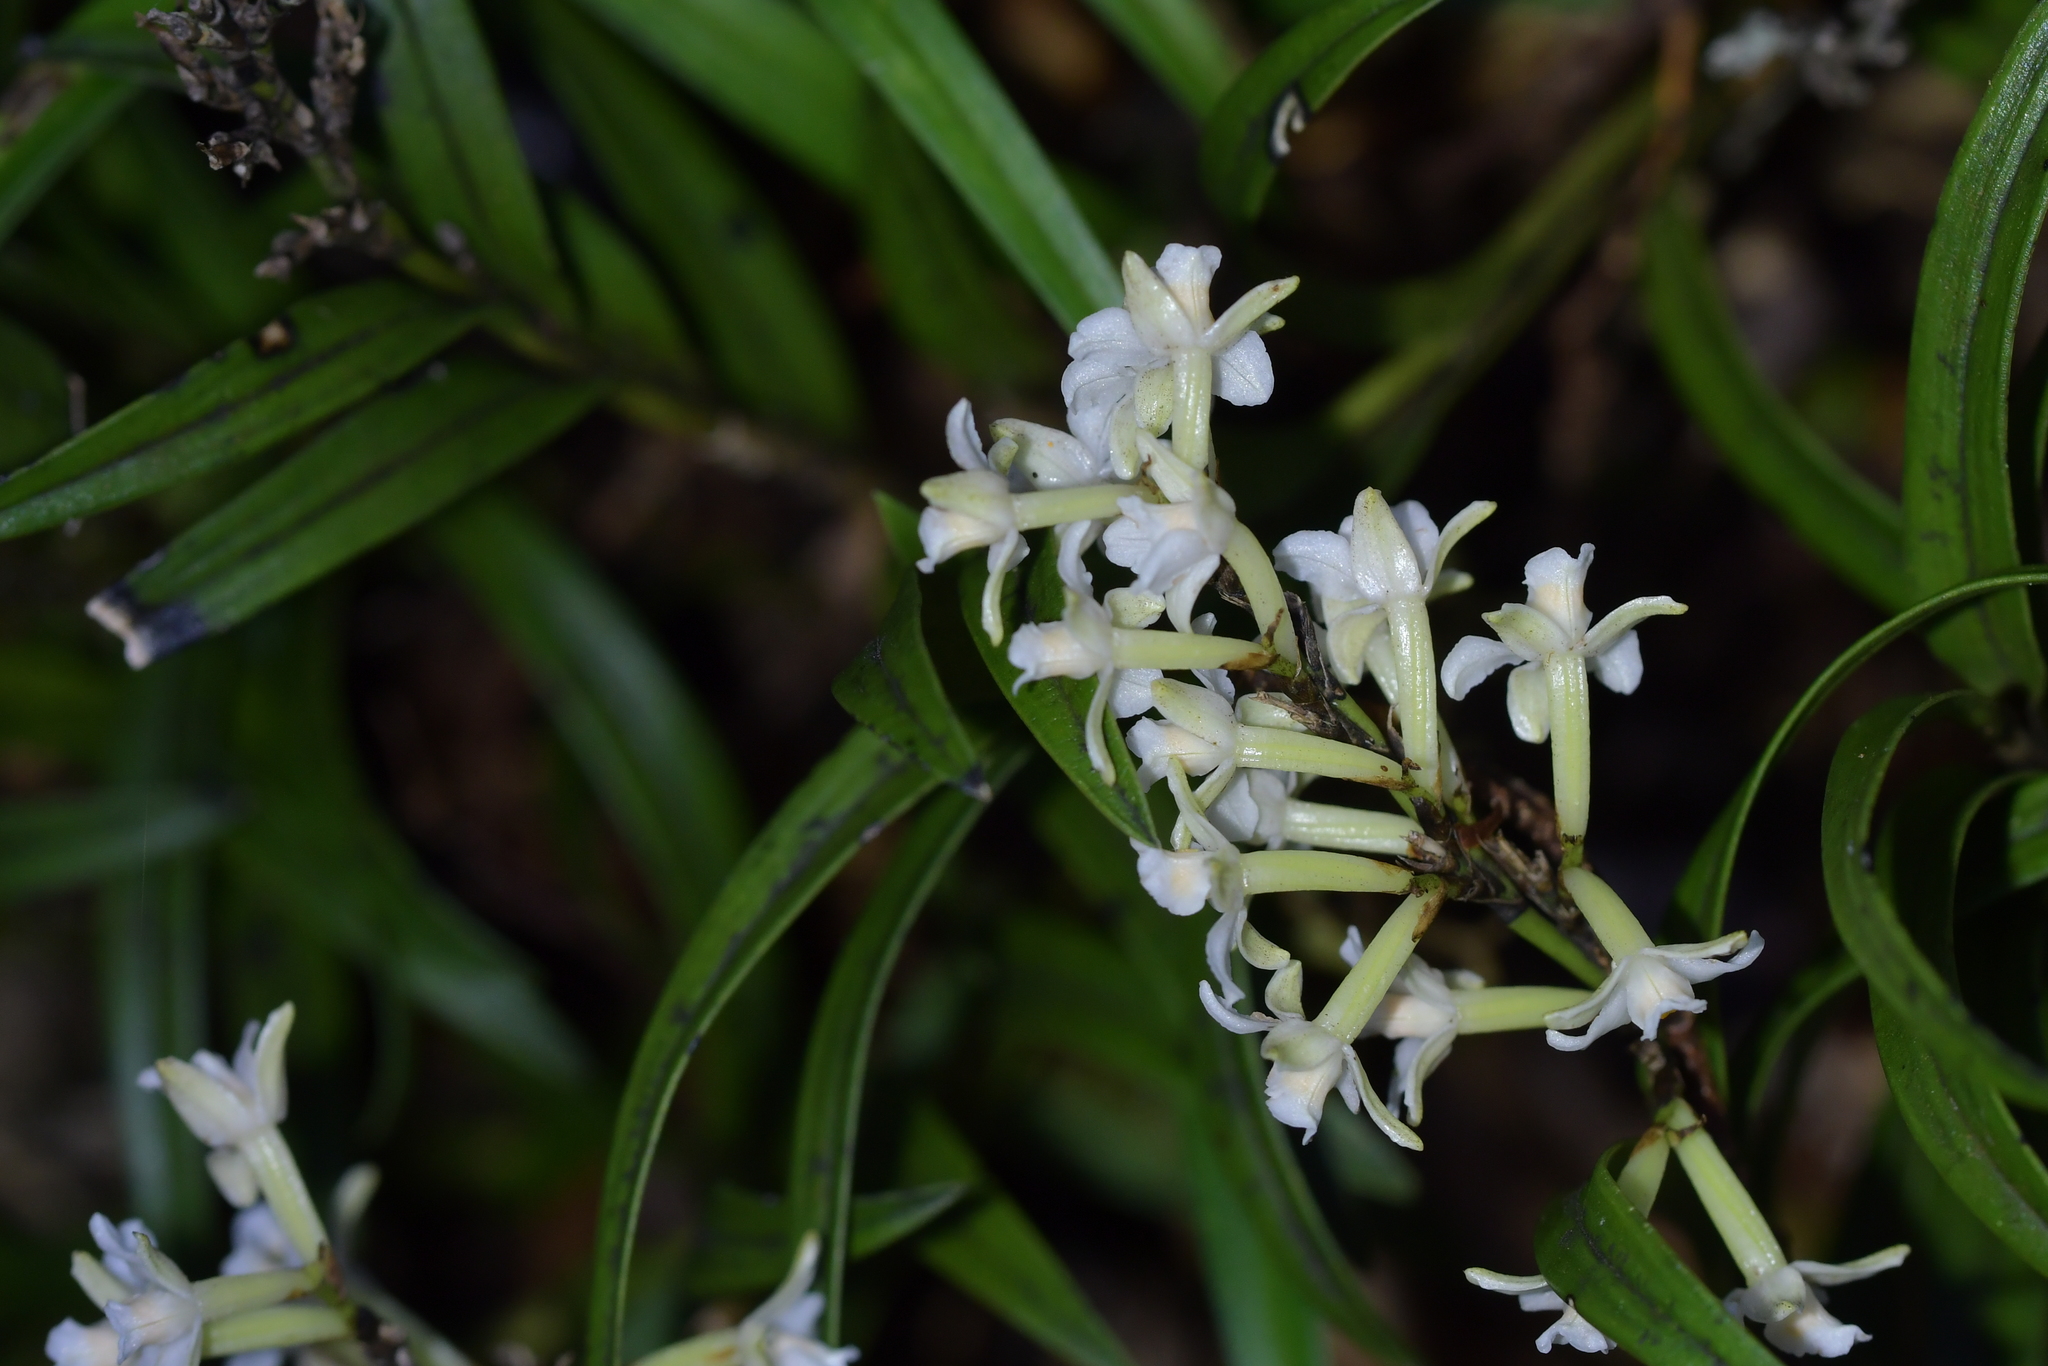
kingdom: Plantae
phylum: Tracheophyta
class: Liliopsida
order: Asparagales
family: Orchidaceae
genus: Earina
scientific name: Earina autumnalis
